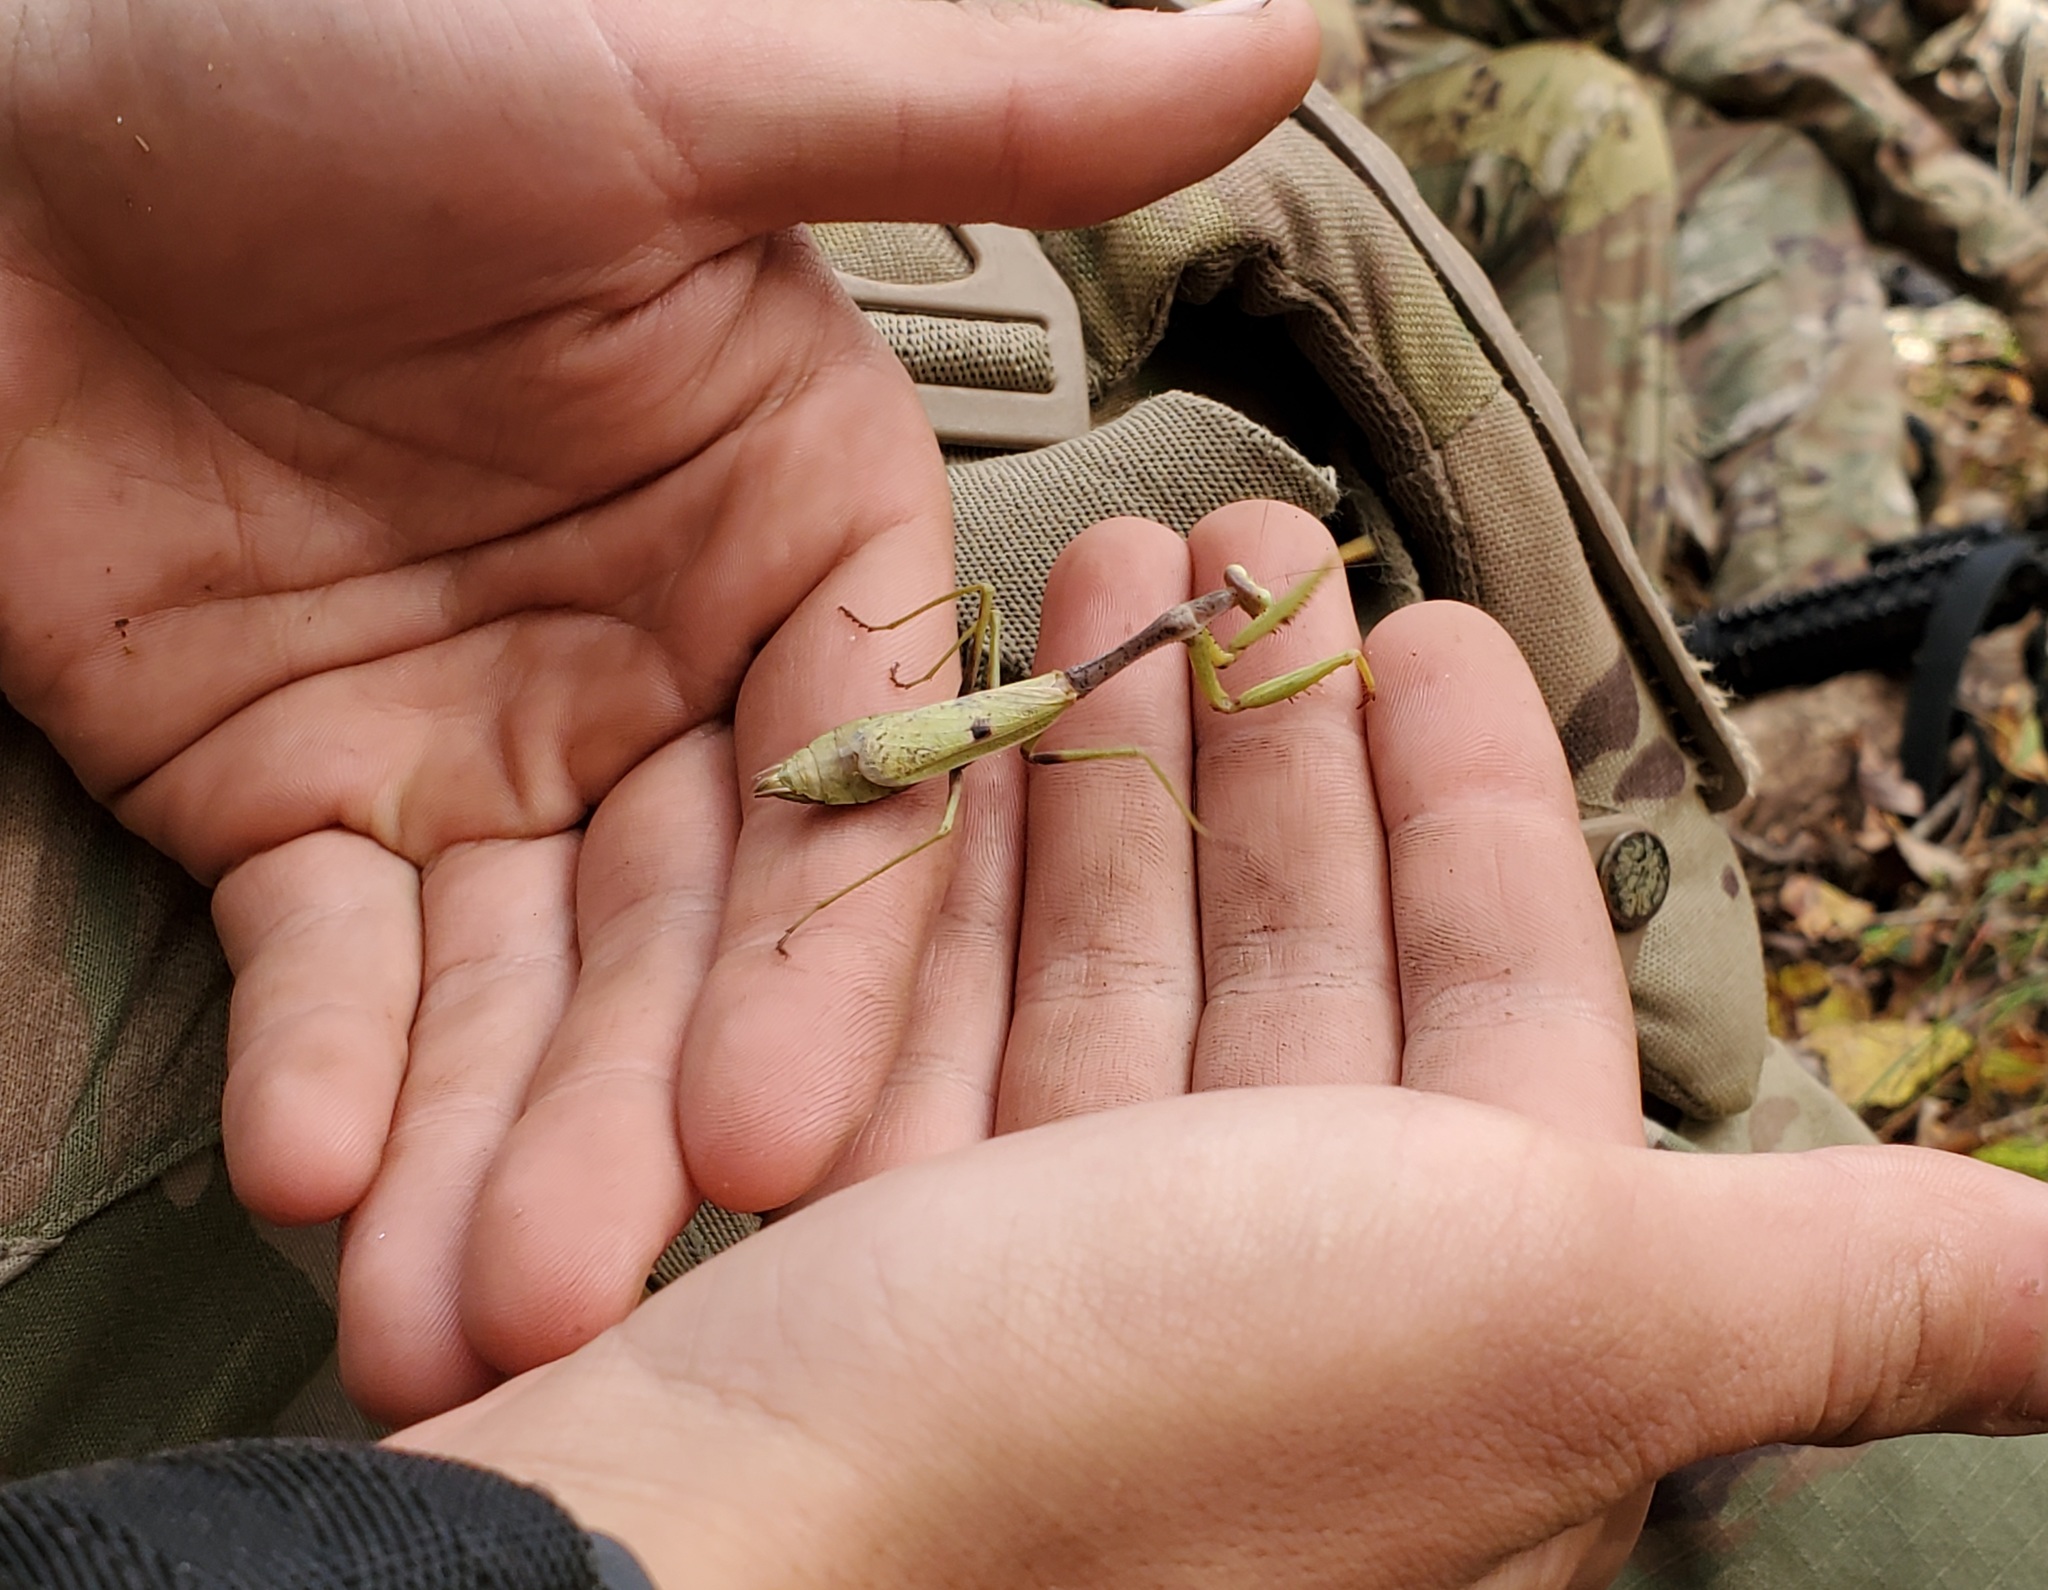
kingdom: Animalia
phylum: Arthropoda
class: Insecta
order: Mantodea
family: Mantidae
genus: Stagmomantis
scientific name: Stagmomantis carolina
